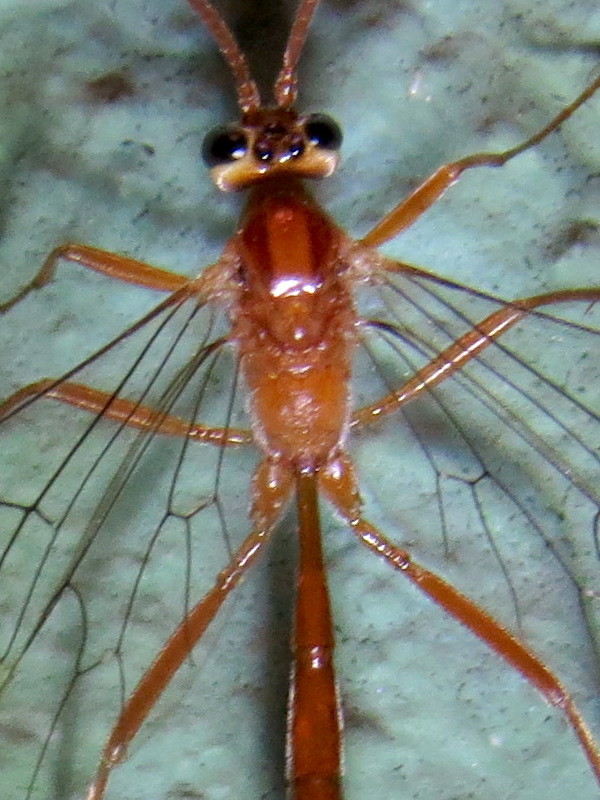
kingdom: Animalia
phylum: Arthropoda
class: Insecta
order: Hymenoptera
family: Ichneumonidae
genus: Ophion
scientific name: Ophion
